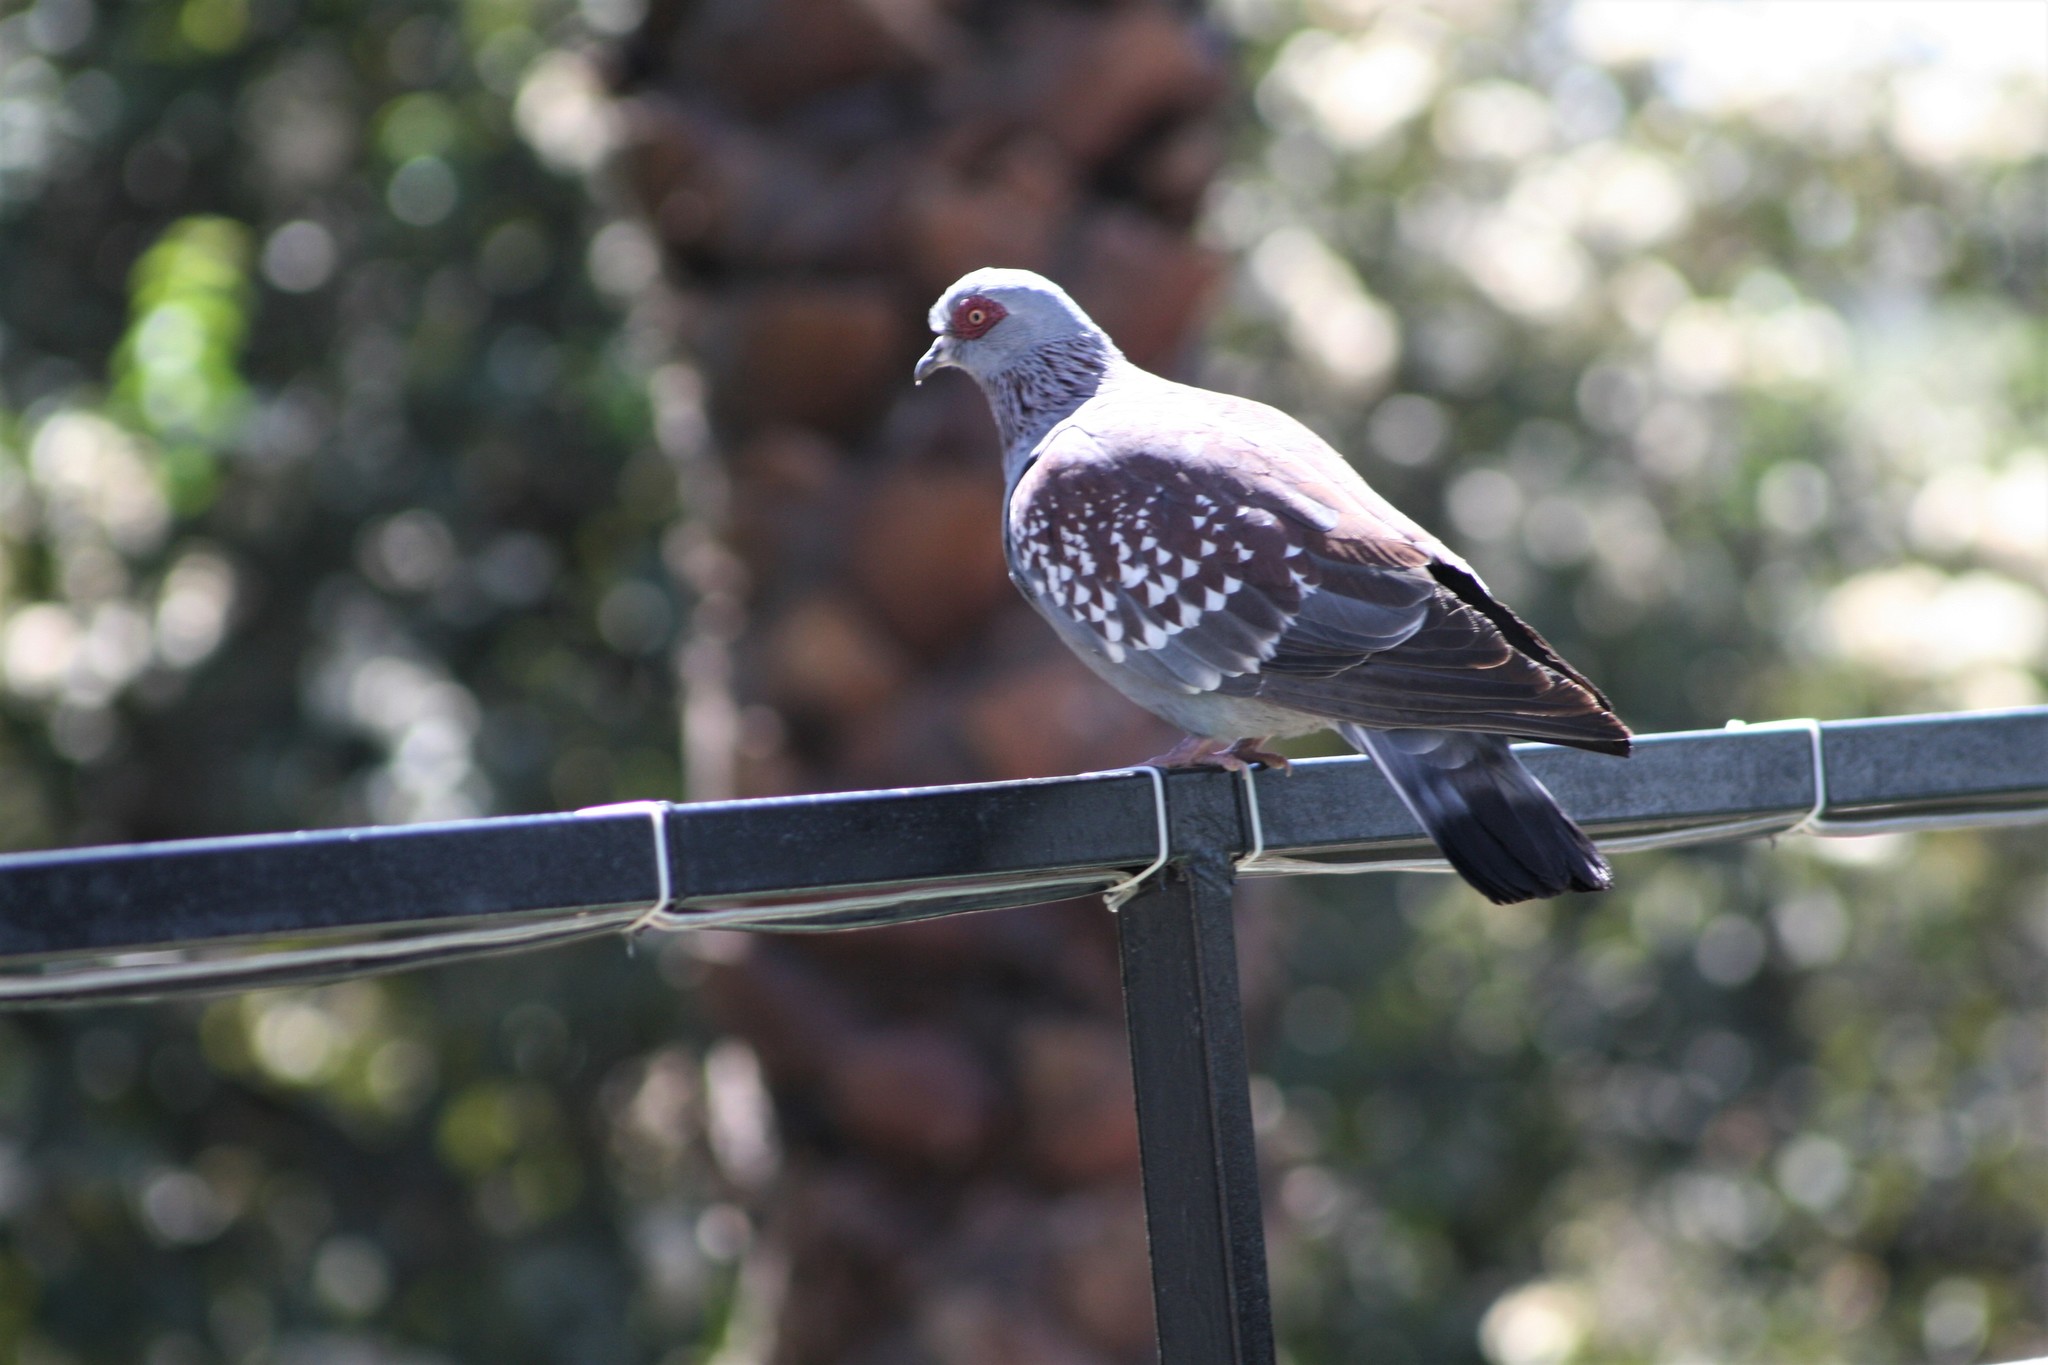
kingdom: Animalia
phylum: Chordata
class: Aves
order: Columbiformes
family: Columbidae
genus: Columba
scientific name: Columba guinea
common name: Speckled pigeon
